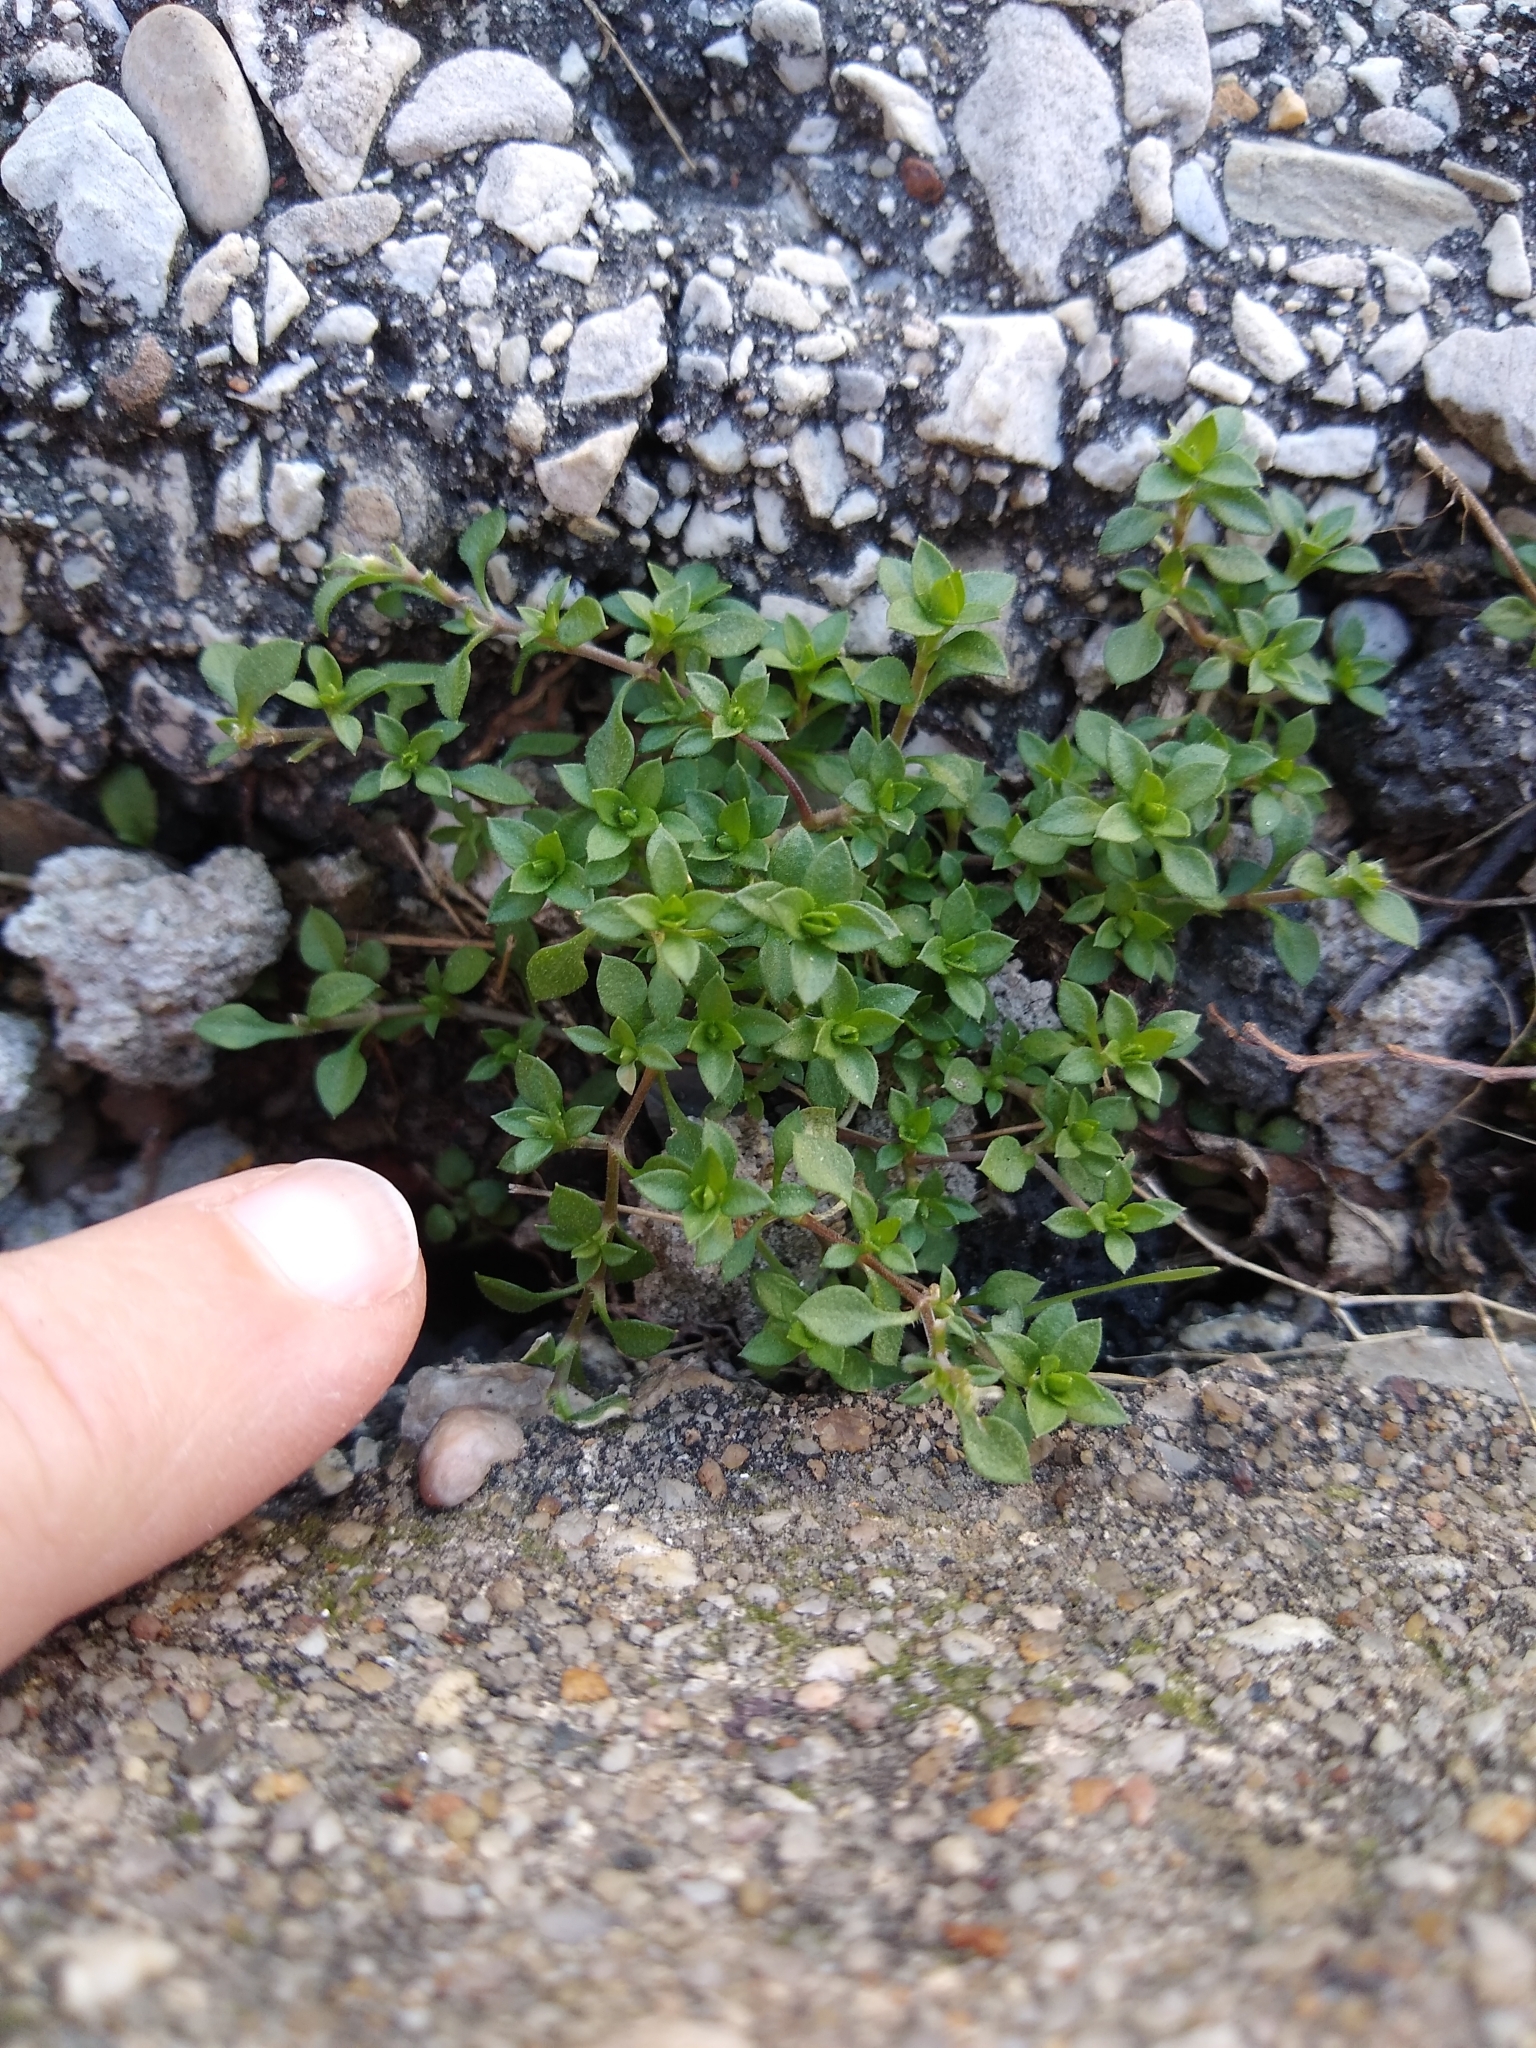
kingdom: Plantae
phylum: Tracheophyta
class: Magnoliopsida
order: Caryophyllales
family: Caryophyllaceae
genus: Stellaria
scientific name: Stellaria media
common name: Common chickweed
